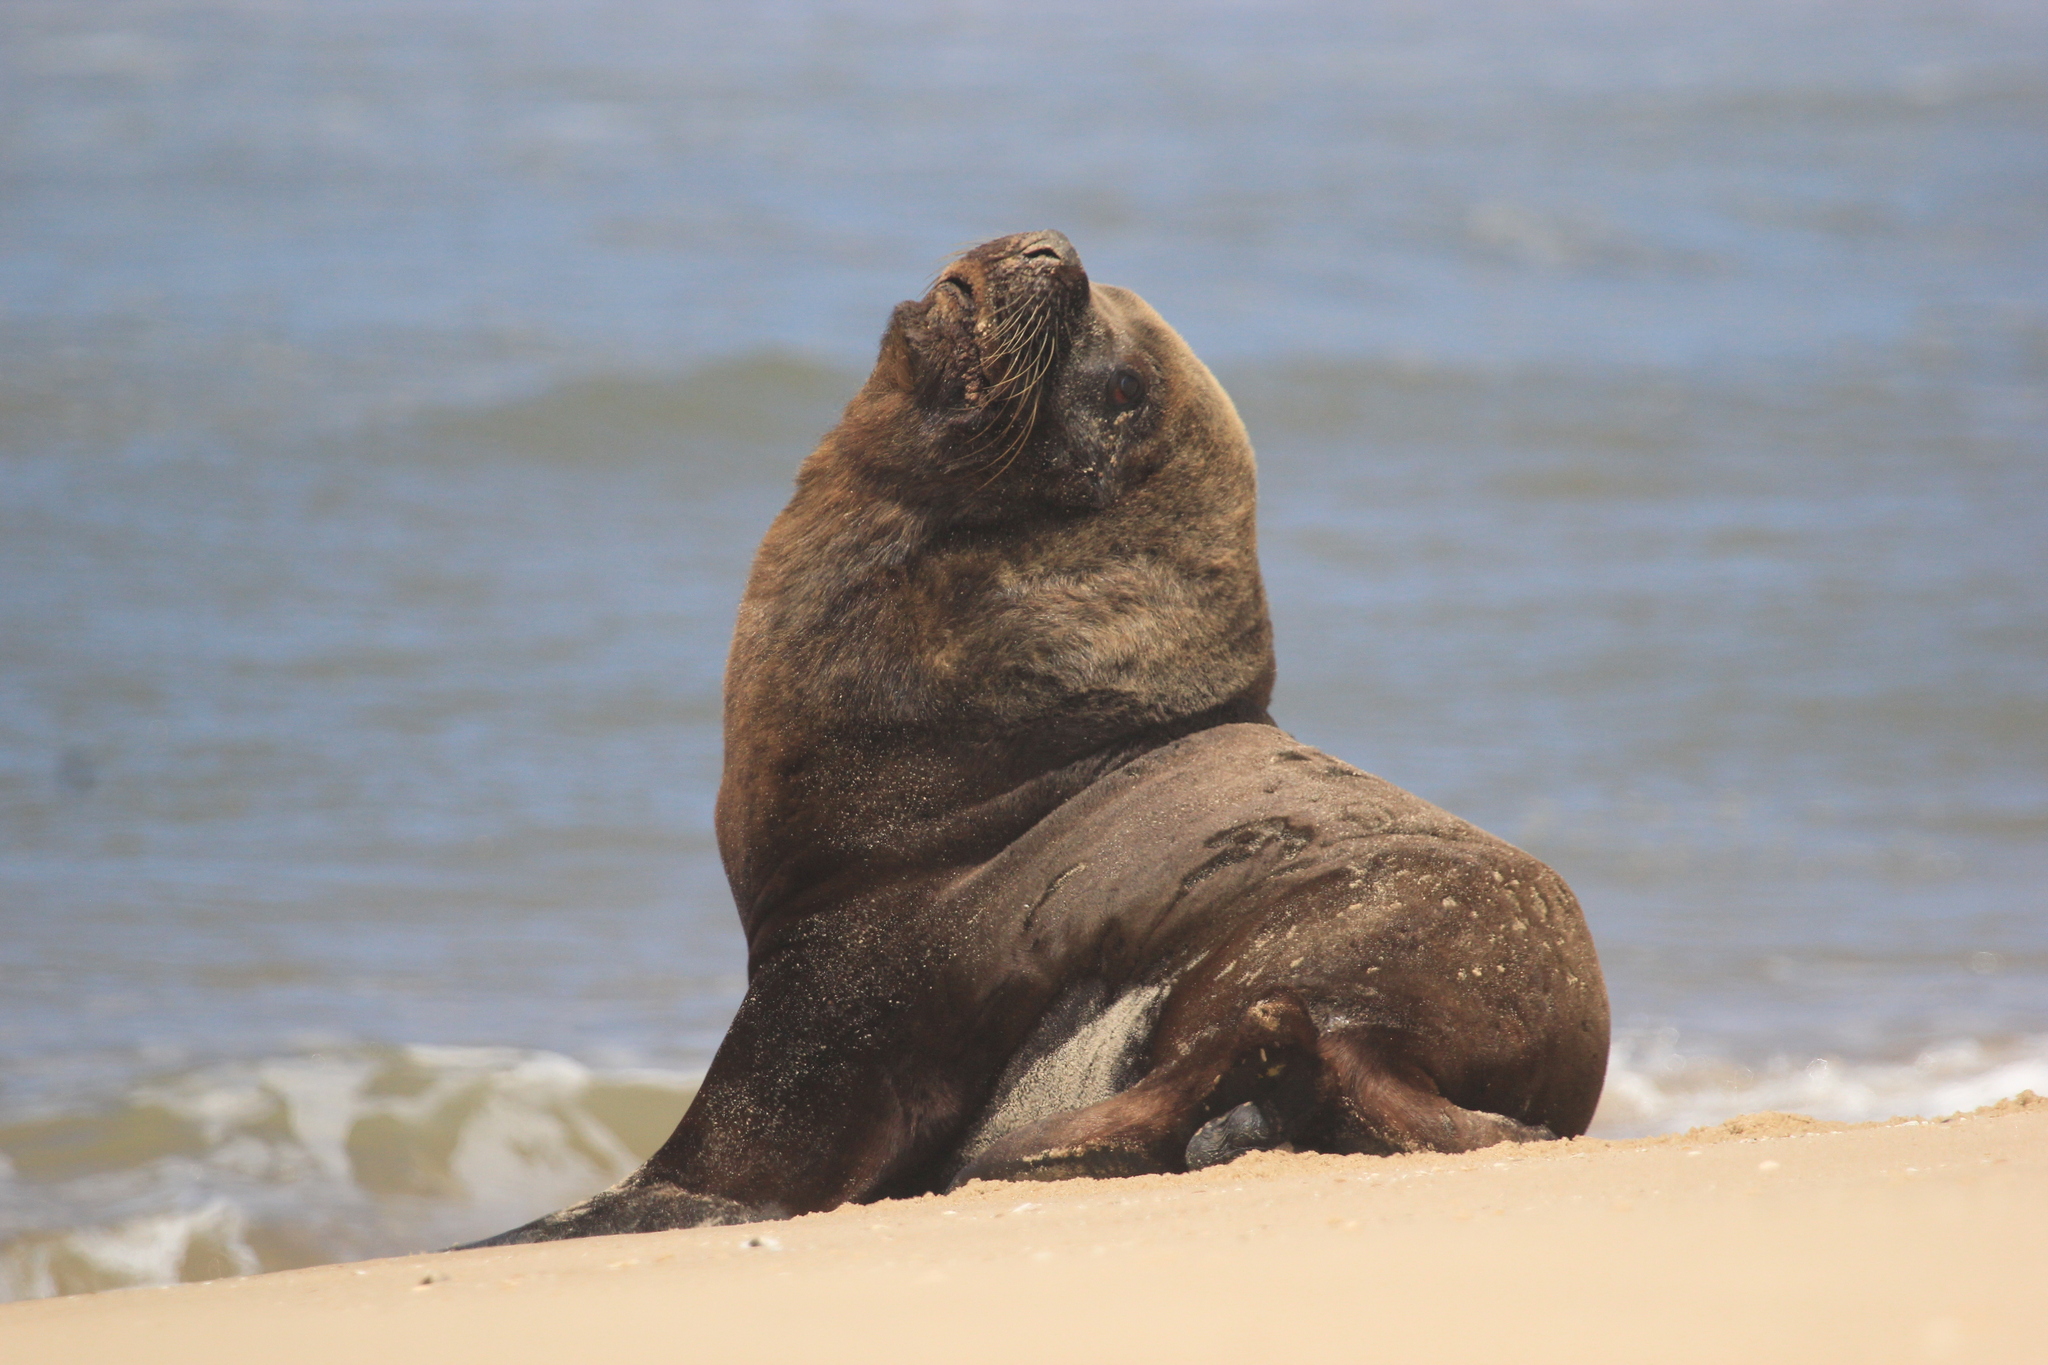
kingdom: Animalia
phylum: Chordata
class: Mammalia
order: Carnivora
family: Otariidae
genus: Otaria
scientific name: Otaria byronia
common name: South american sea lion
